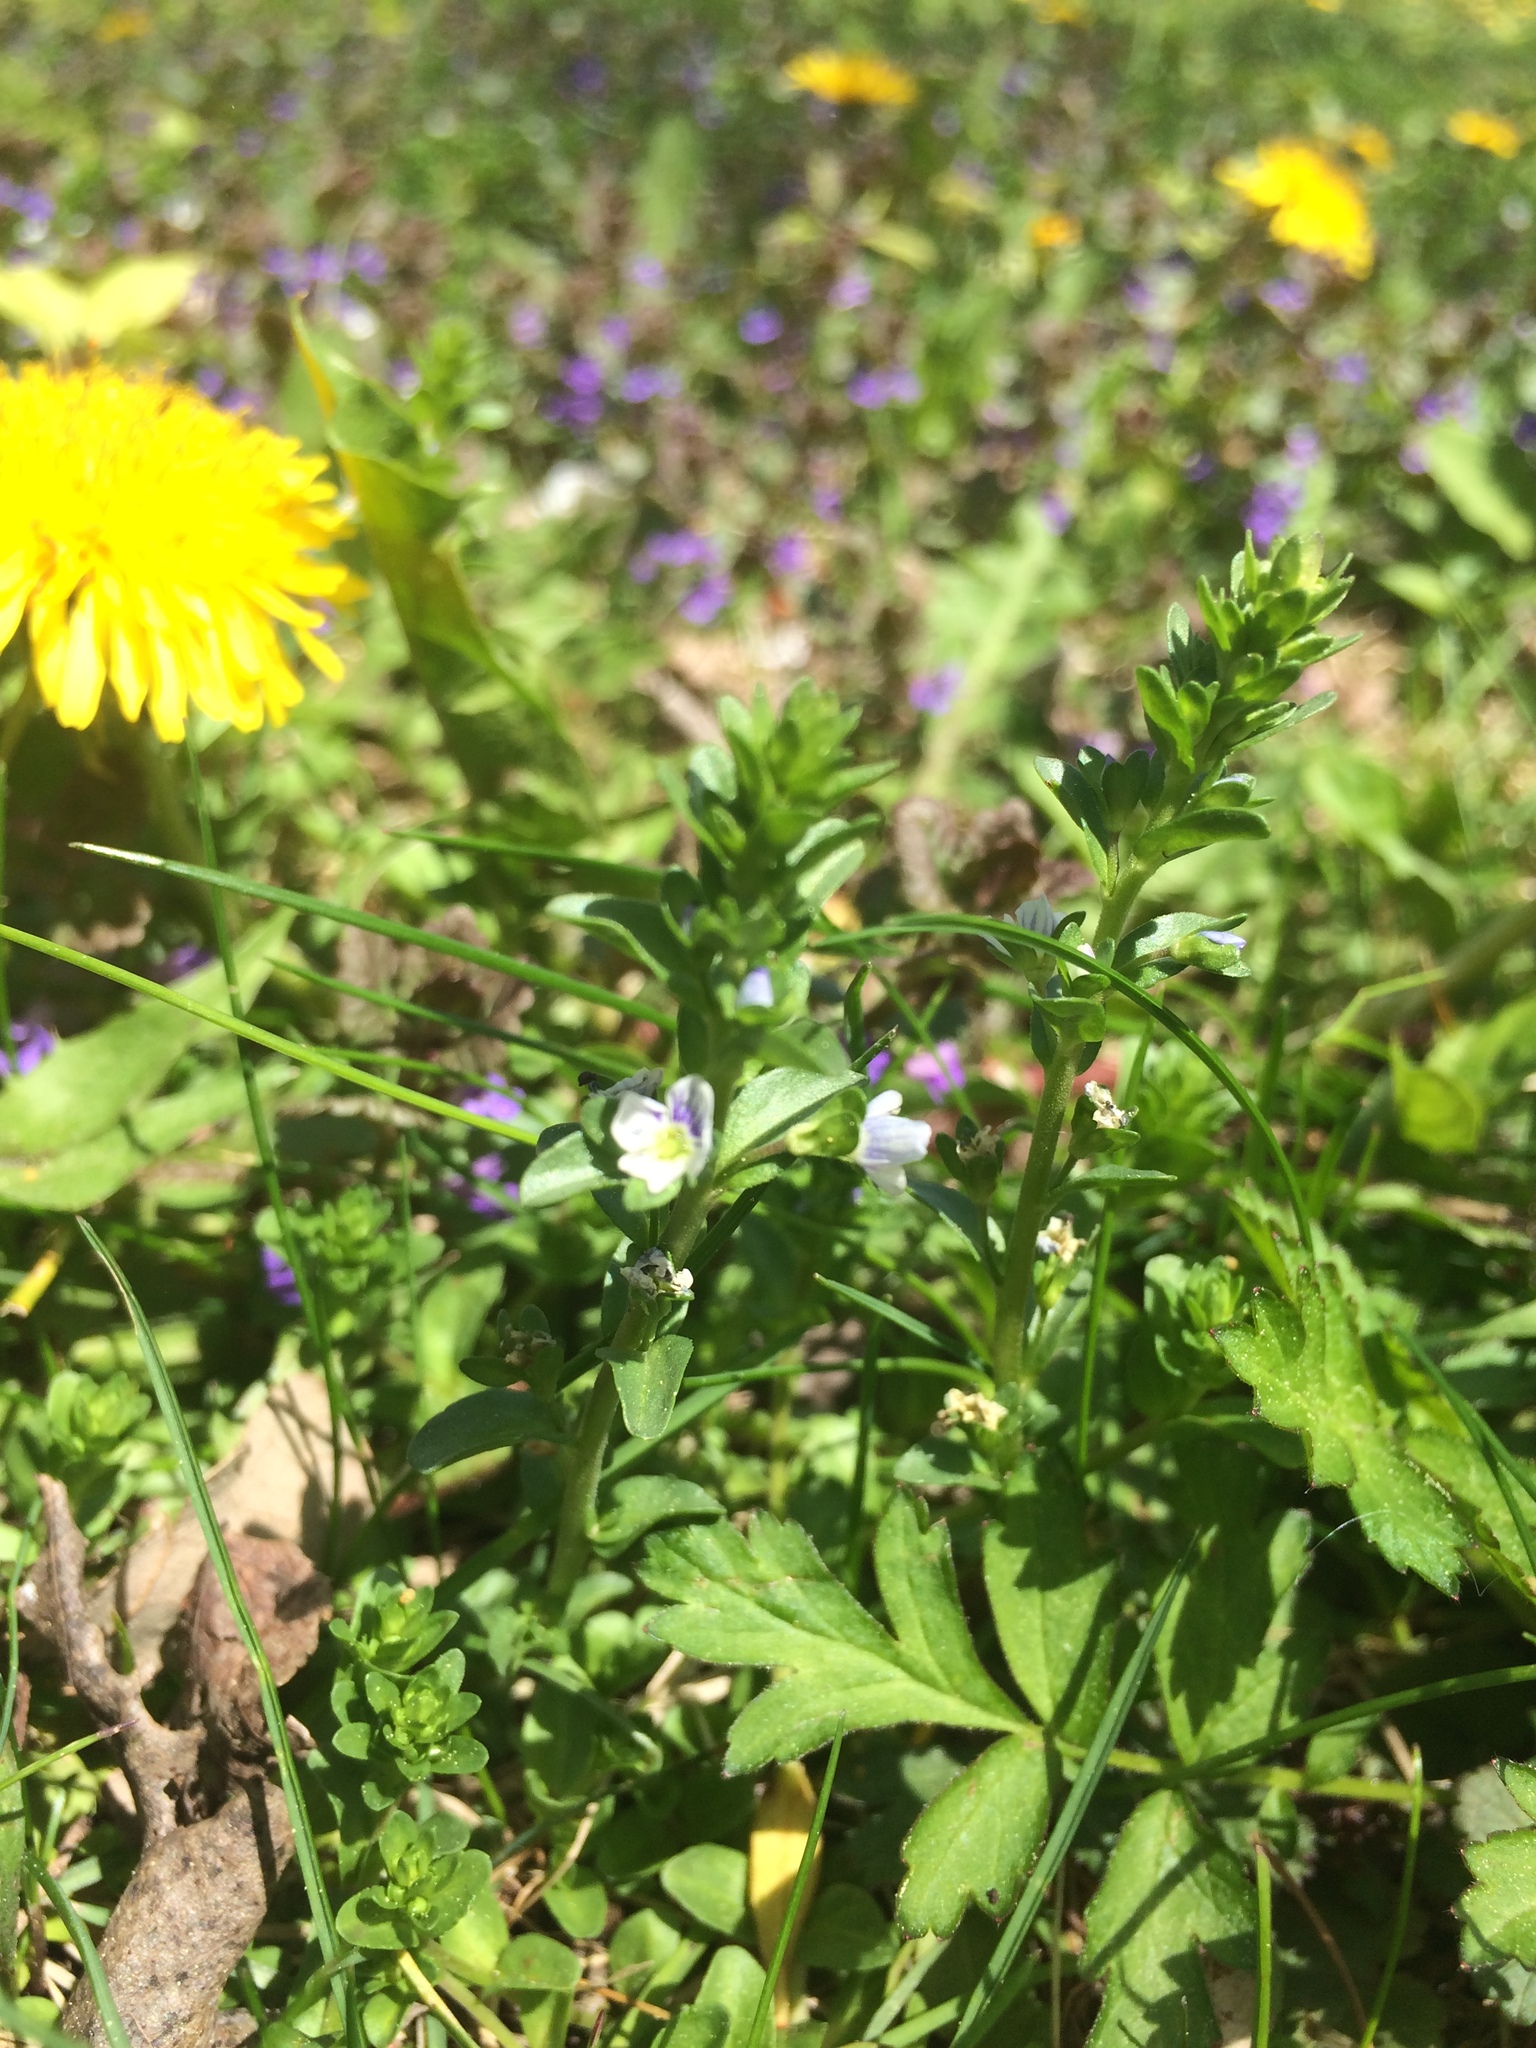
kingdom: Plantae
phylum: Tracheophyta
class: Magnoliopsida
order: Lamiales
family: Plantaginaceae
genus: Veronica
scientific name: Veronica serpyllifolia
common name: Thyme-leaved speedwell
